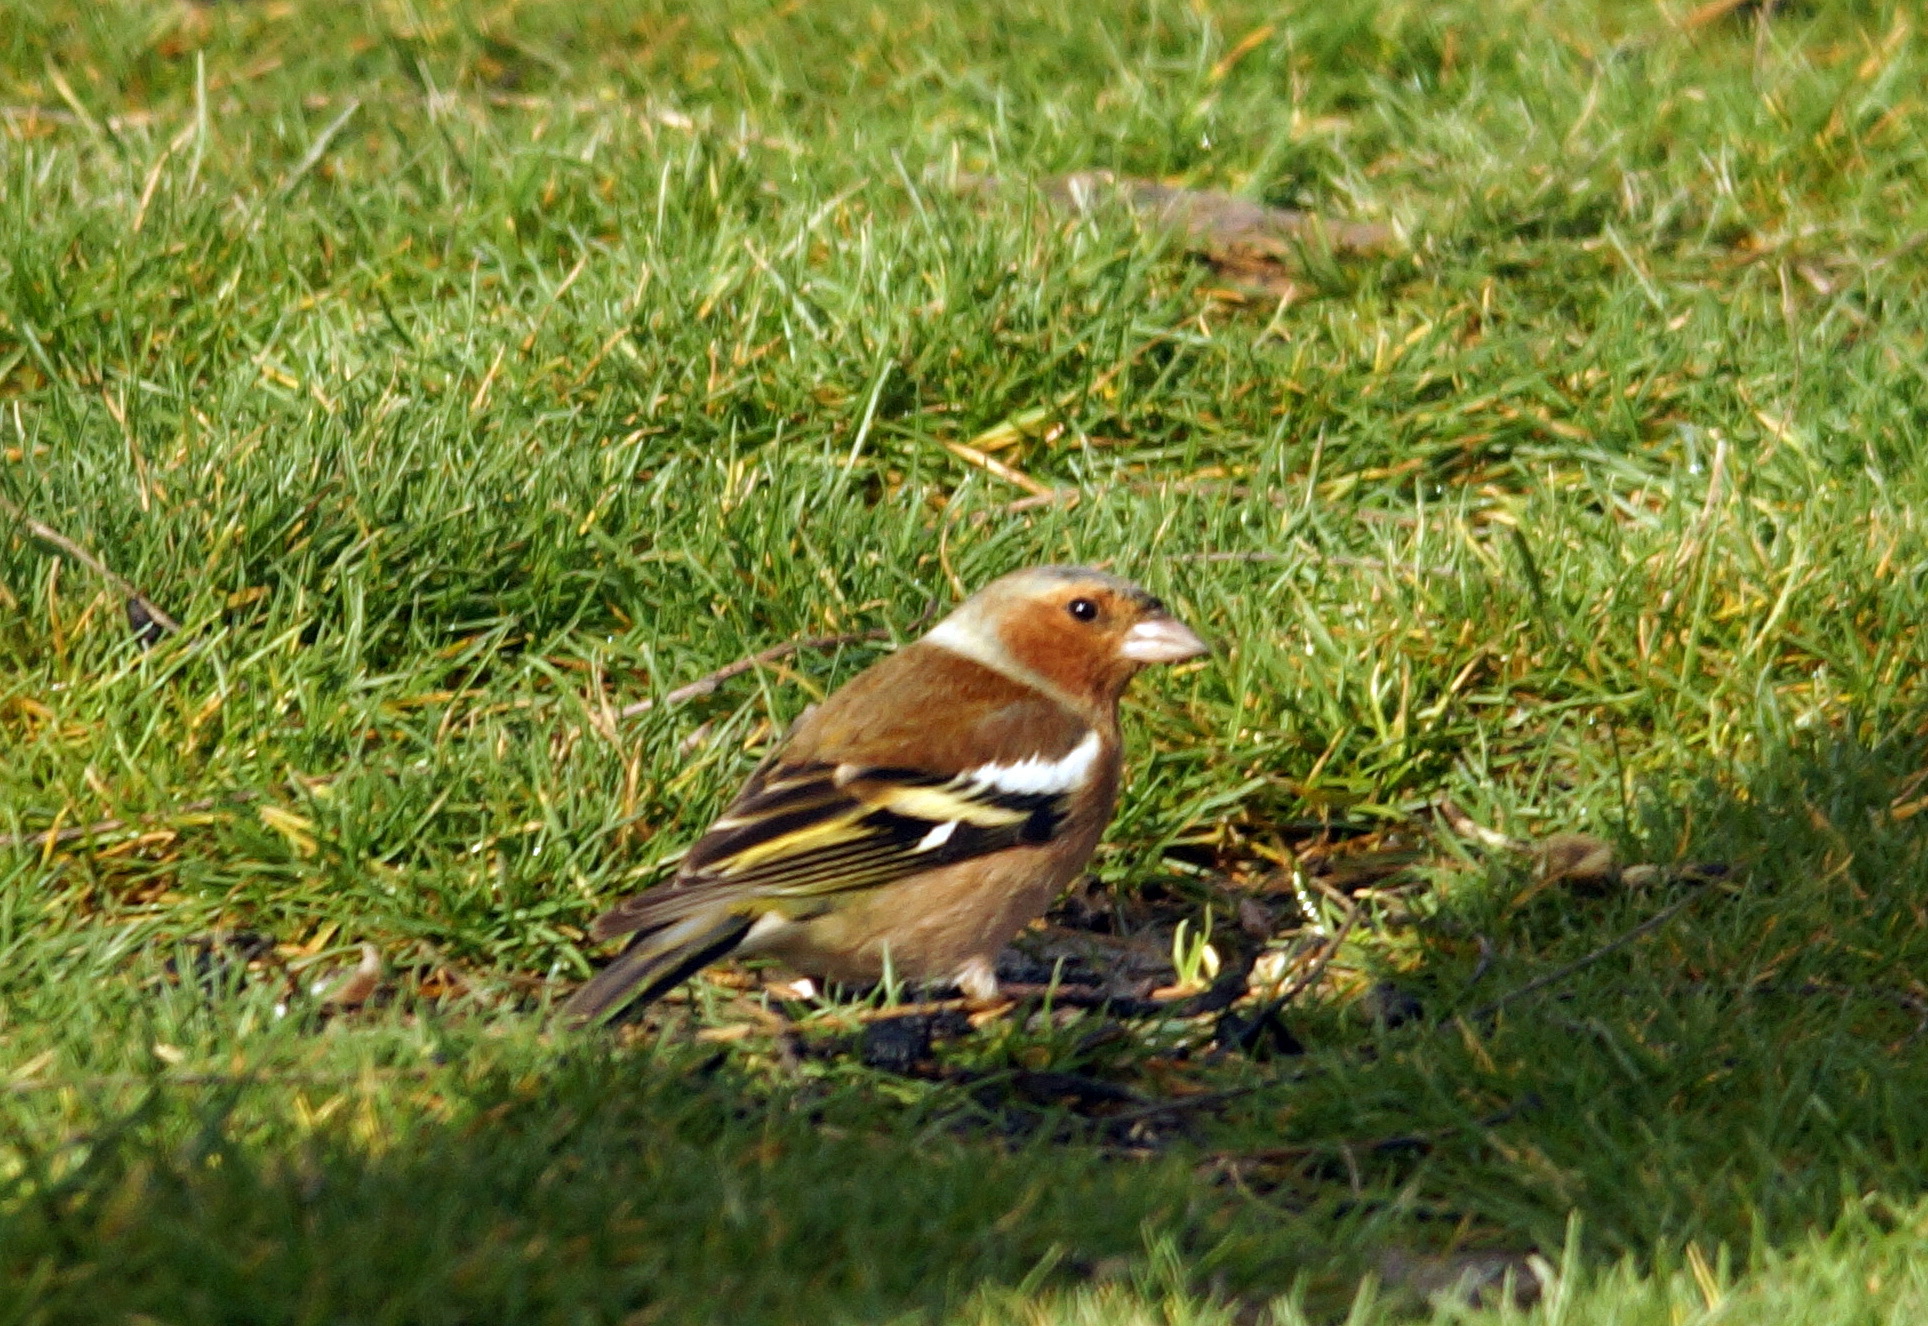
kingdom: Animalia
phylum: Chordata
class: Aves
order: Passeriformes
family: Fringillidae
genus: Fringilla
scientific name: Fringilla coelebs
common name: Common chaffinch
